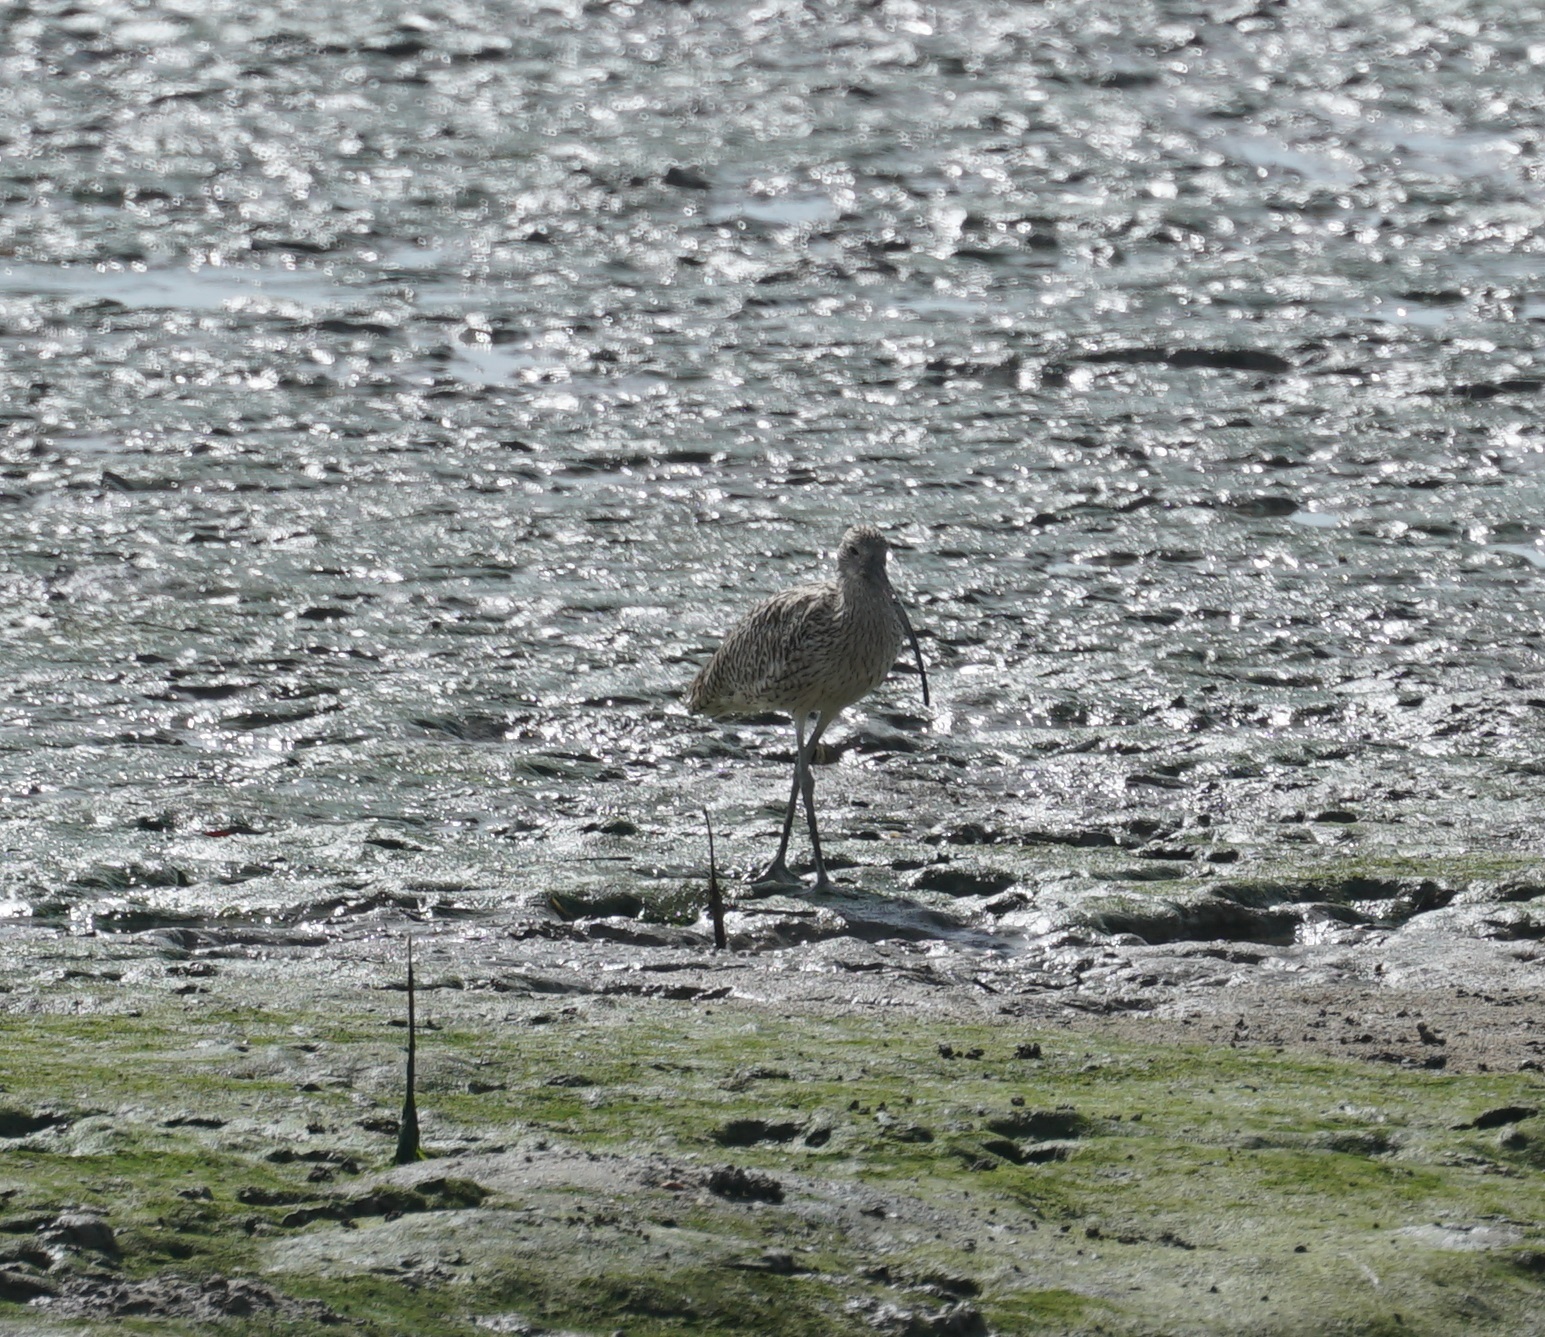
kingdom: Animalia
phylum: Chordata
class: Aves
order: Charadriiformes
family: Scolopacidae
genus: Numenius
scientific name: Numenius madagascariensis
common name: Far eastern curlew
